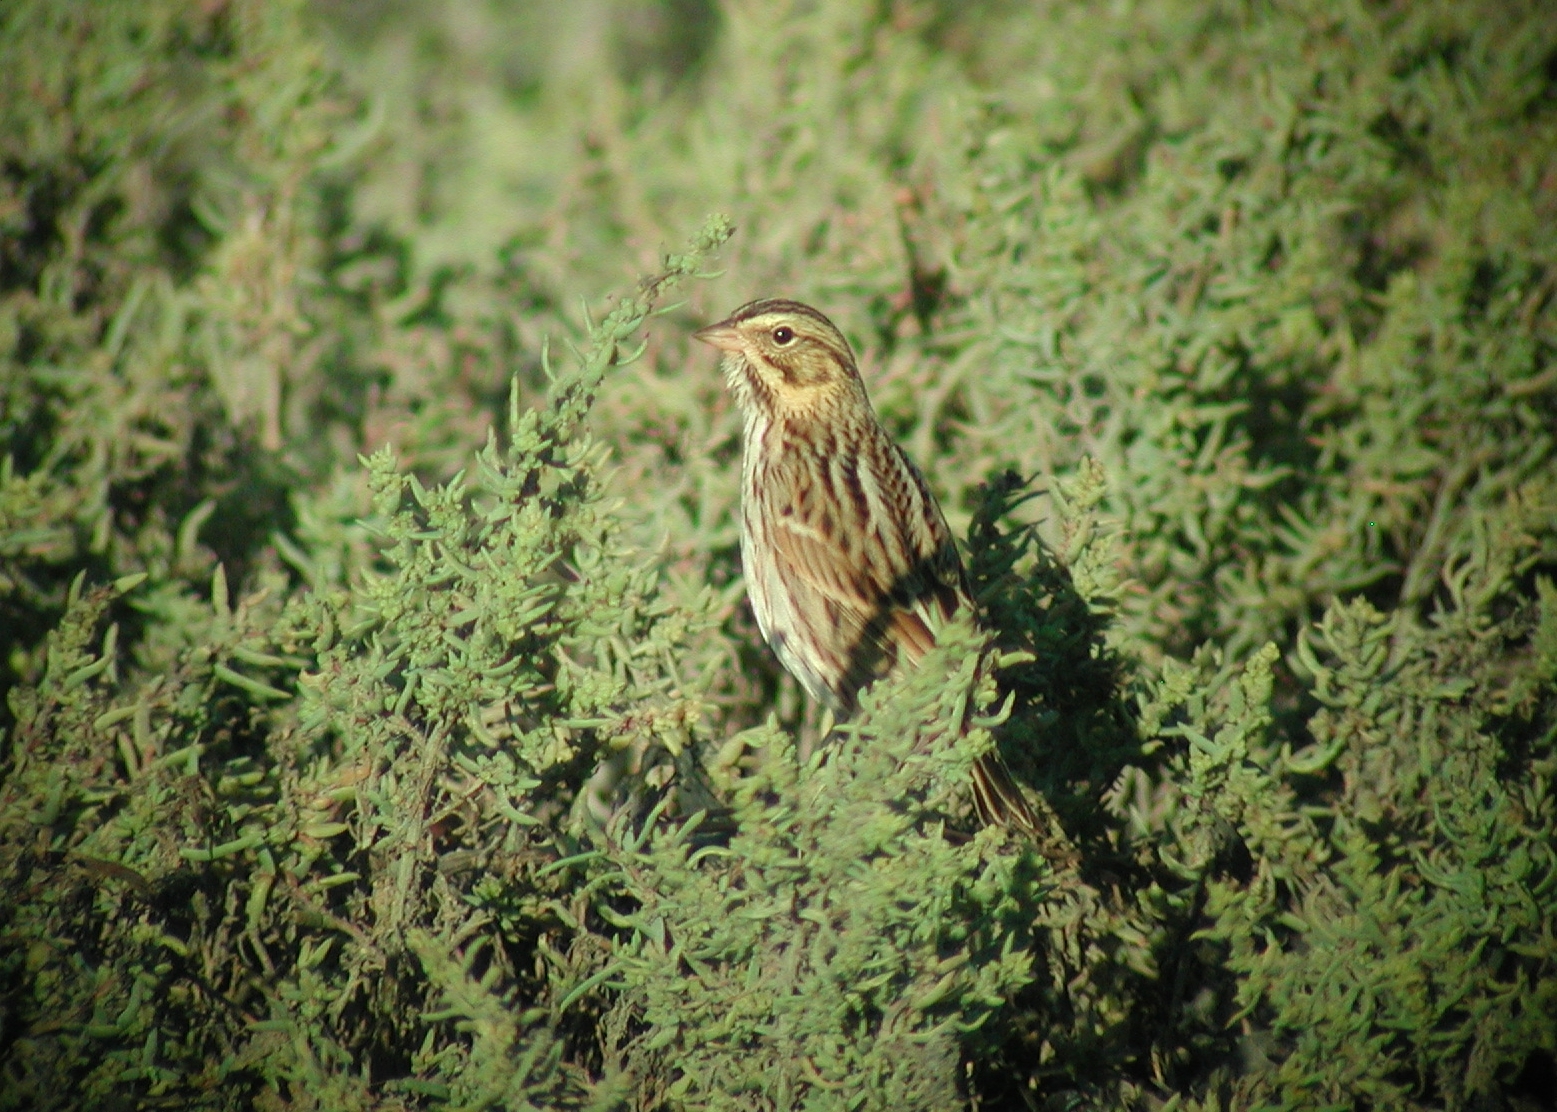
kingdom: Animalia
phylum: Chordata
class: Aves
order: Passeriformes
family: Passerellidae
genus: Passerculus
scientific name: Passerculus sandwichensis
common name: Savannah sparrow
